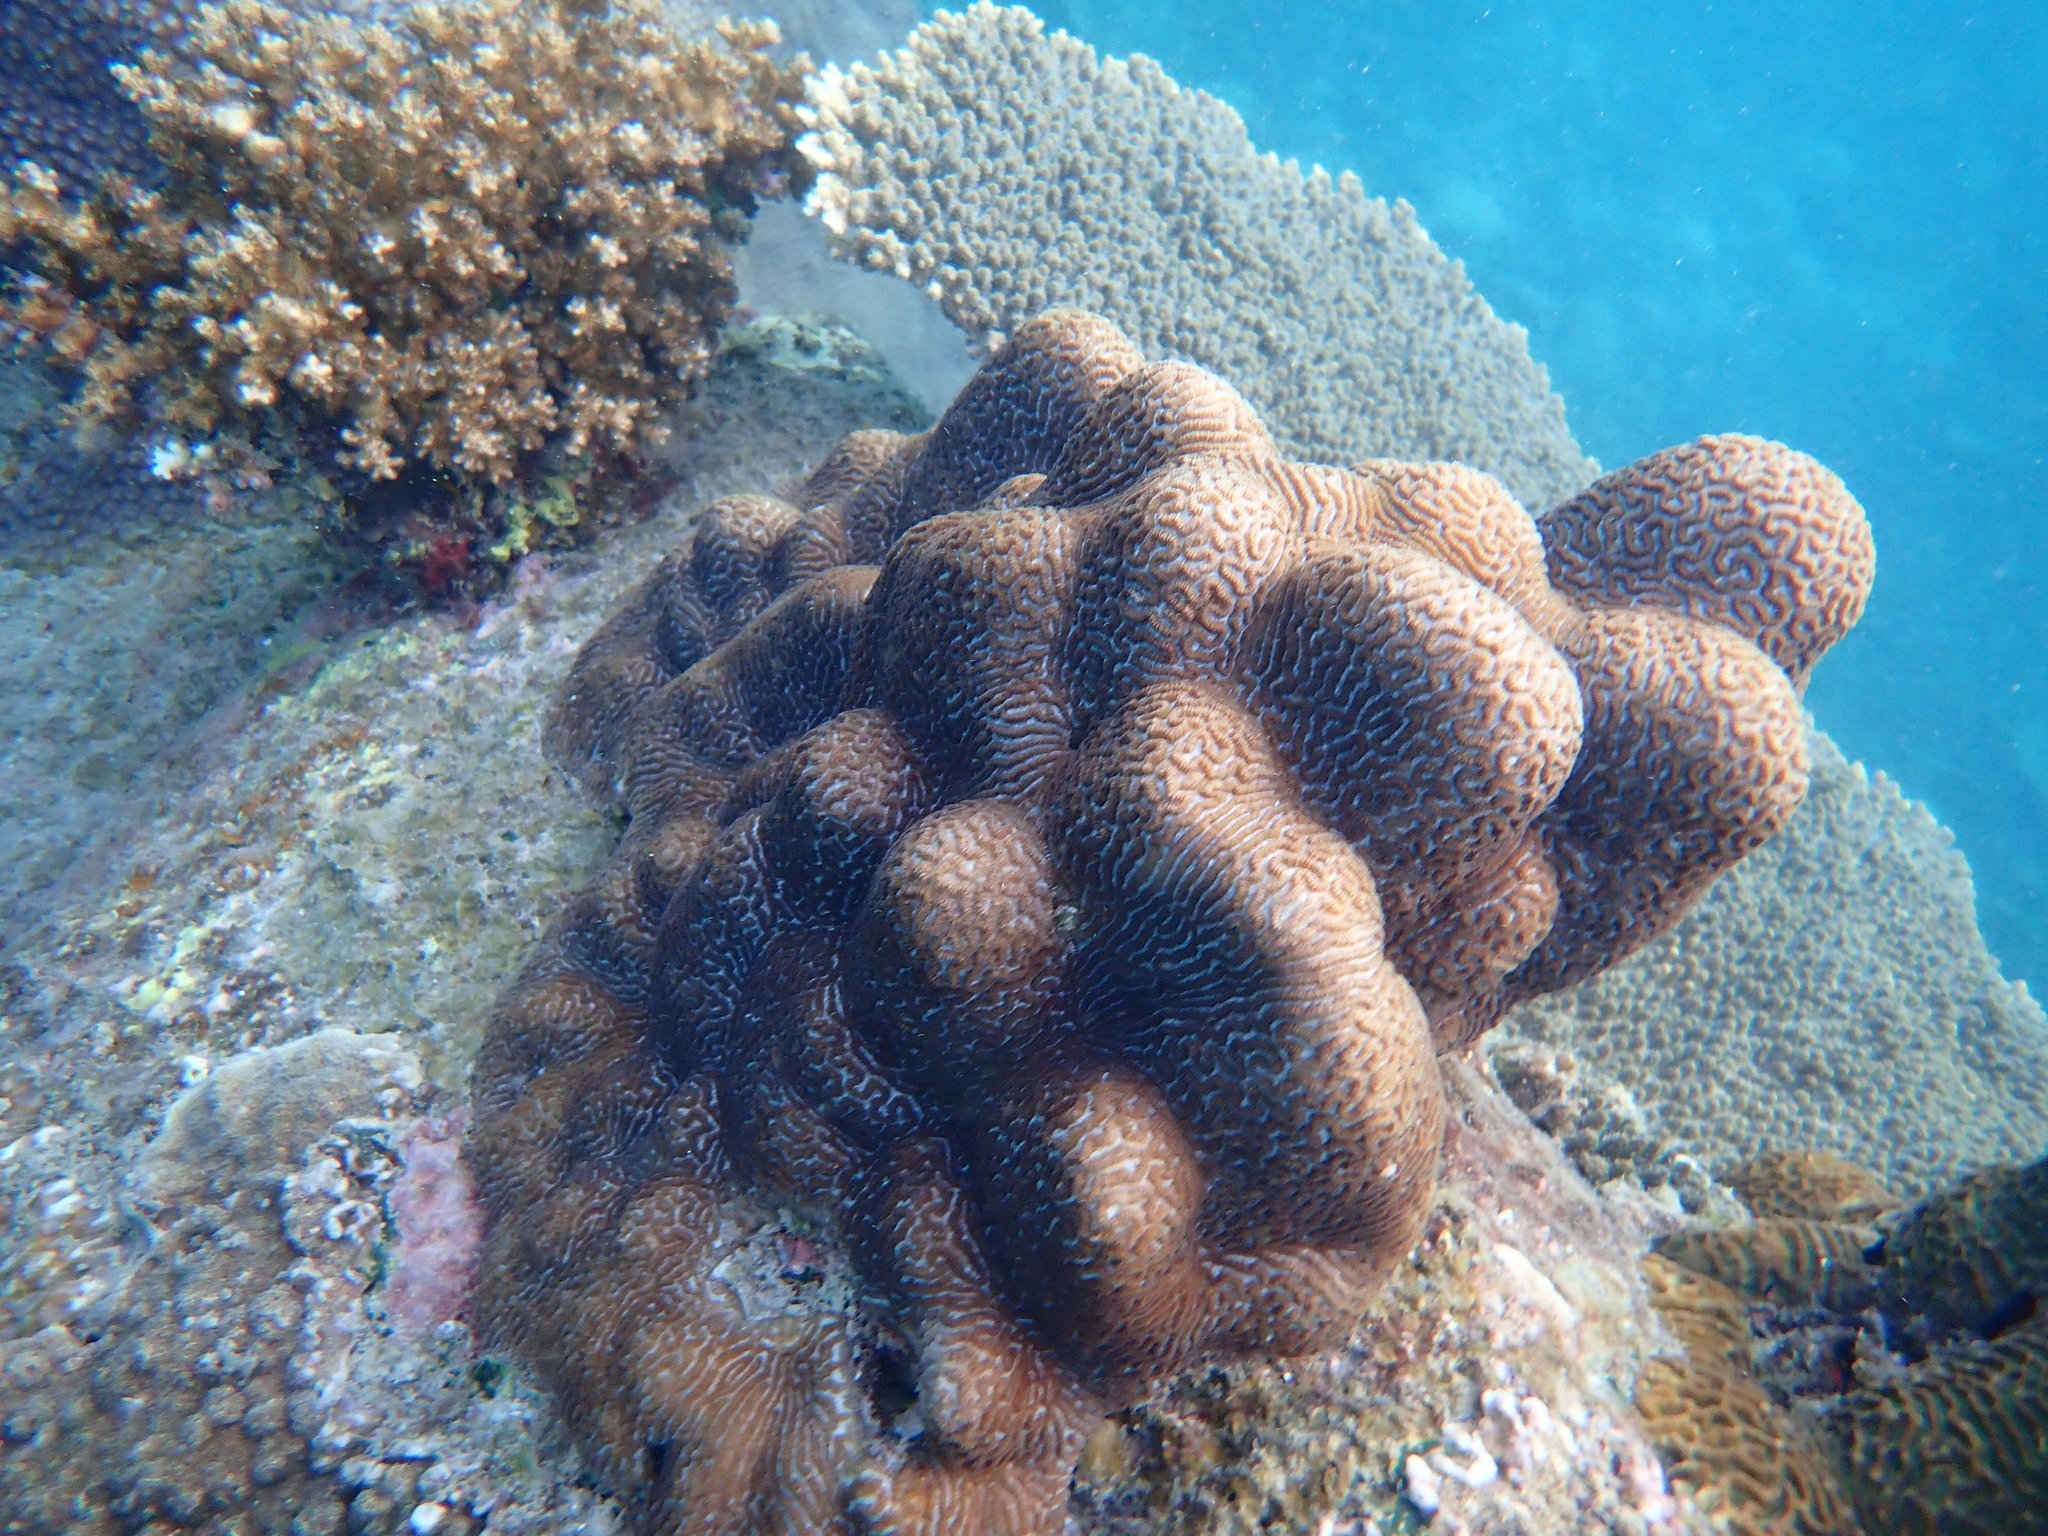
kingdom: Animalia
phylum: Cnidaria
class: Anthozoa
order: Scleractinia
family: Merulinidae
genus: Leptoria
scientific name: Leptoria phrygia
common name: Least valley coral
